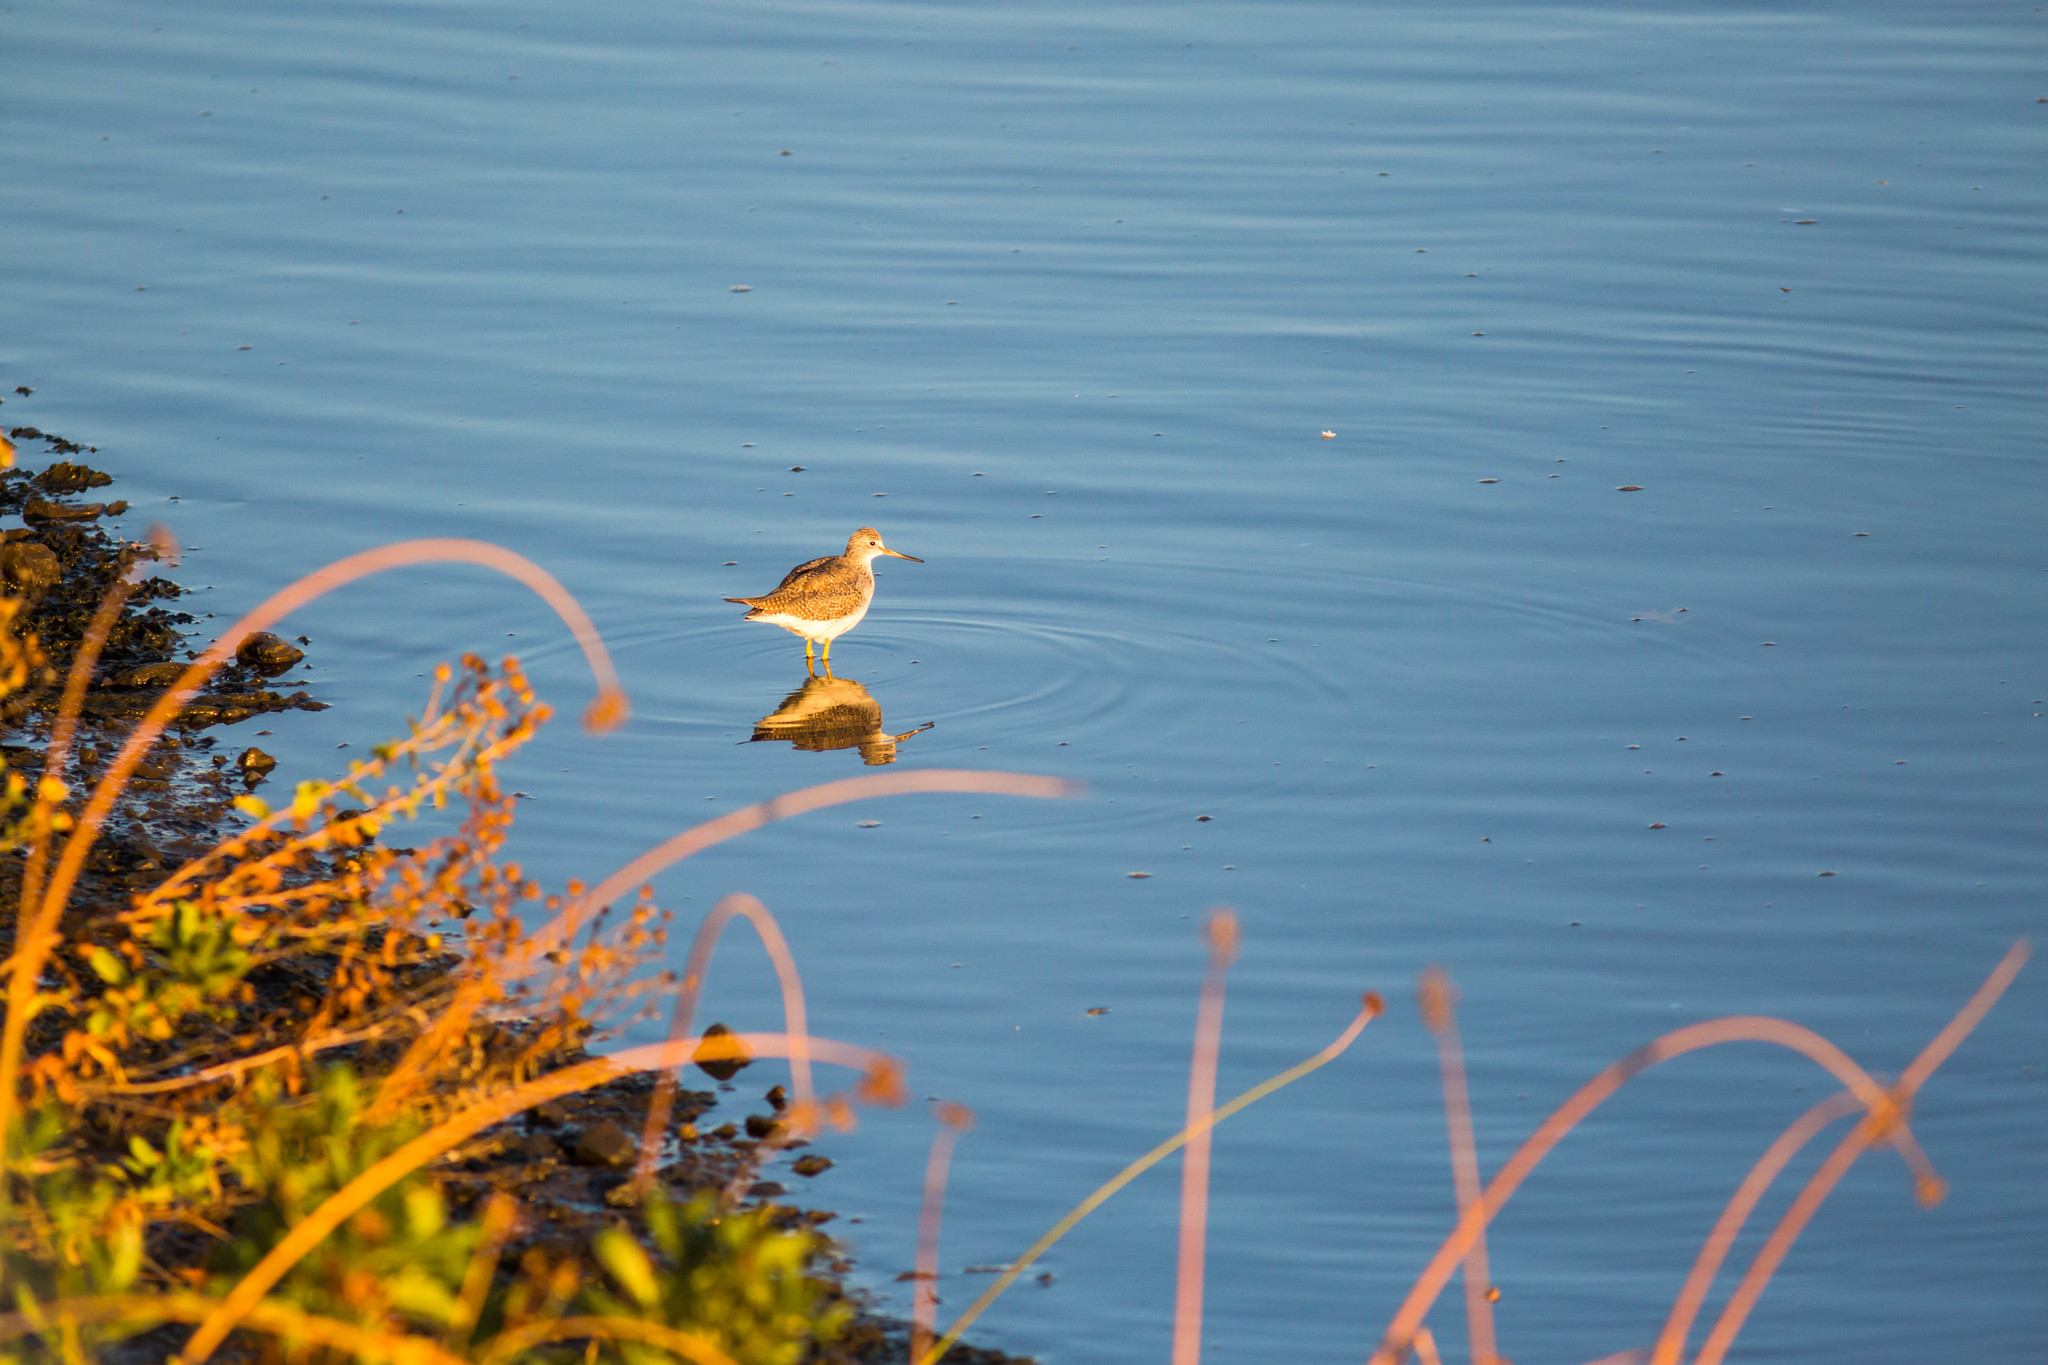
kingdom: Animalia
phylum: Chordata
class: Aves
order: Charadriiformes
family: Scolopacidae
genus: Tringa
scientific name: Tringa melanoleuca
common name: Greater yellowlegs
